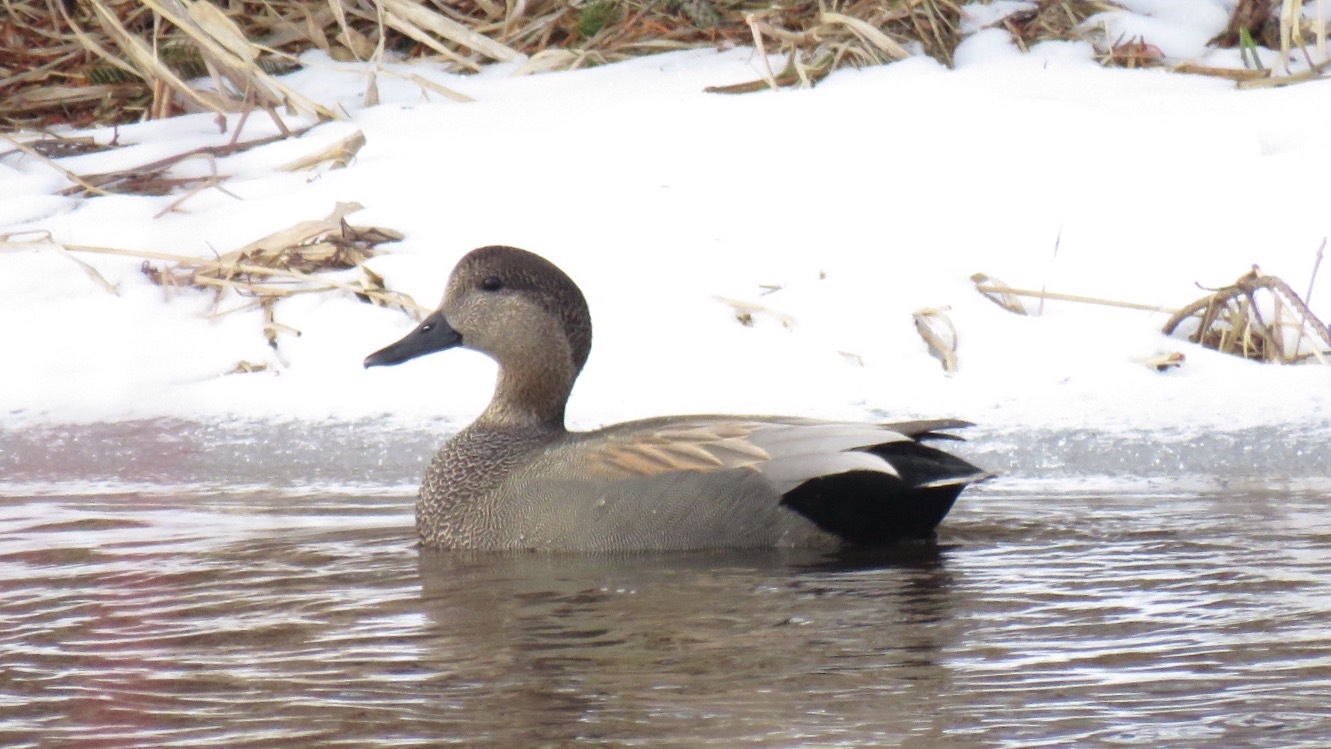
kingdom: Animalia
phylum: Chordata
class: Aves
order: Anseriformes
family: Anatidae
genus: Mareca
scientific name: Mareca strepera
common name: Gadwall
